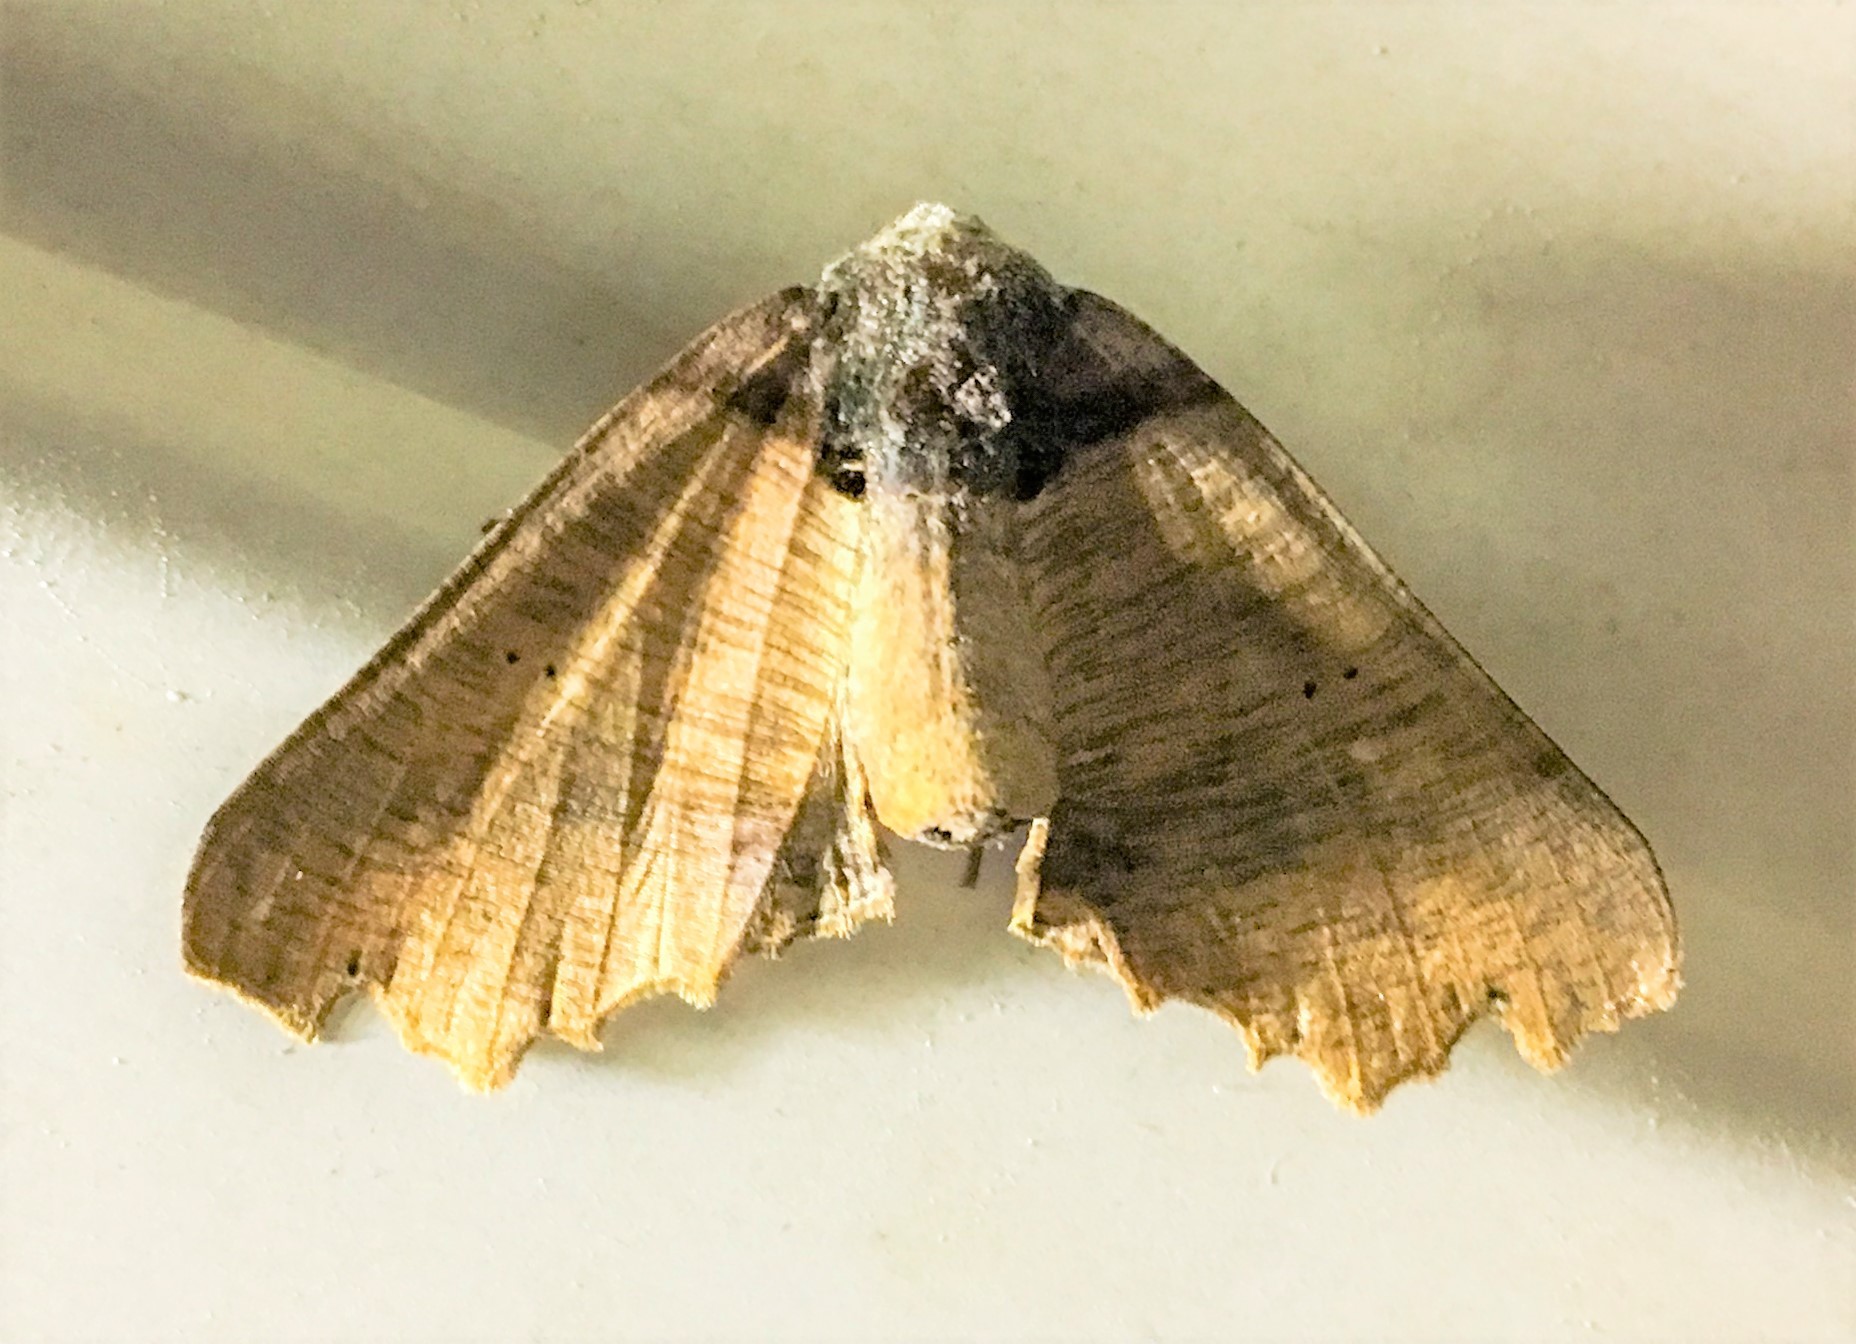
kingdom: Animalia
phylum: Arthropoda
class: Insecta
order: Lepidoptera
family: Geometridae
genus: Pero
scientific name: Pero polygonaria
